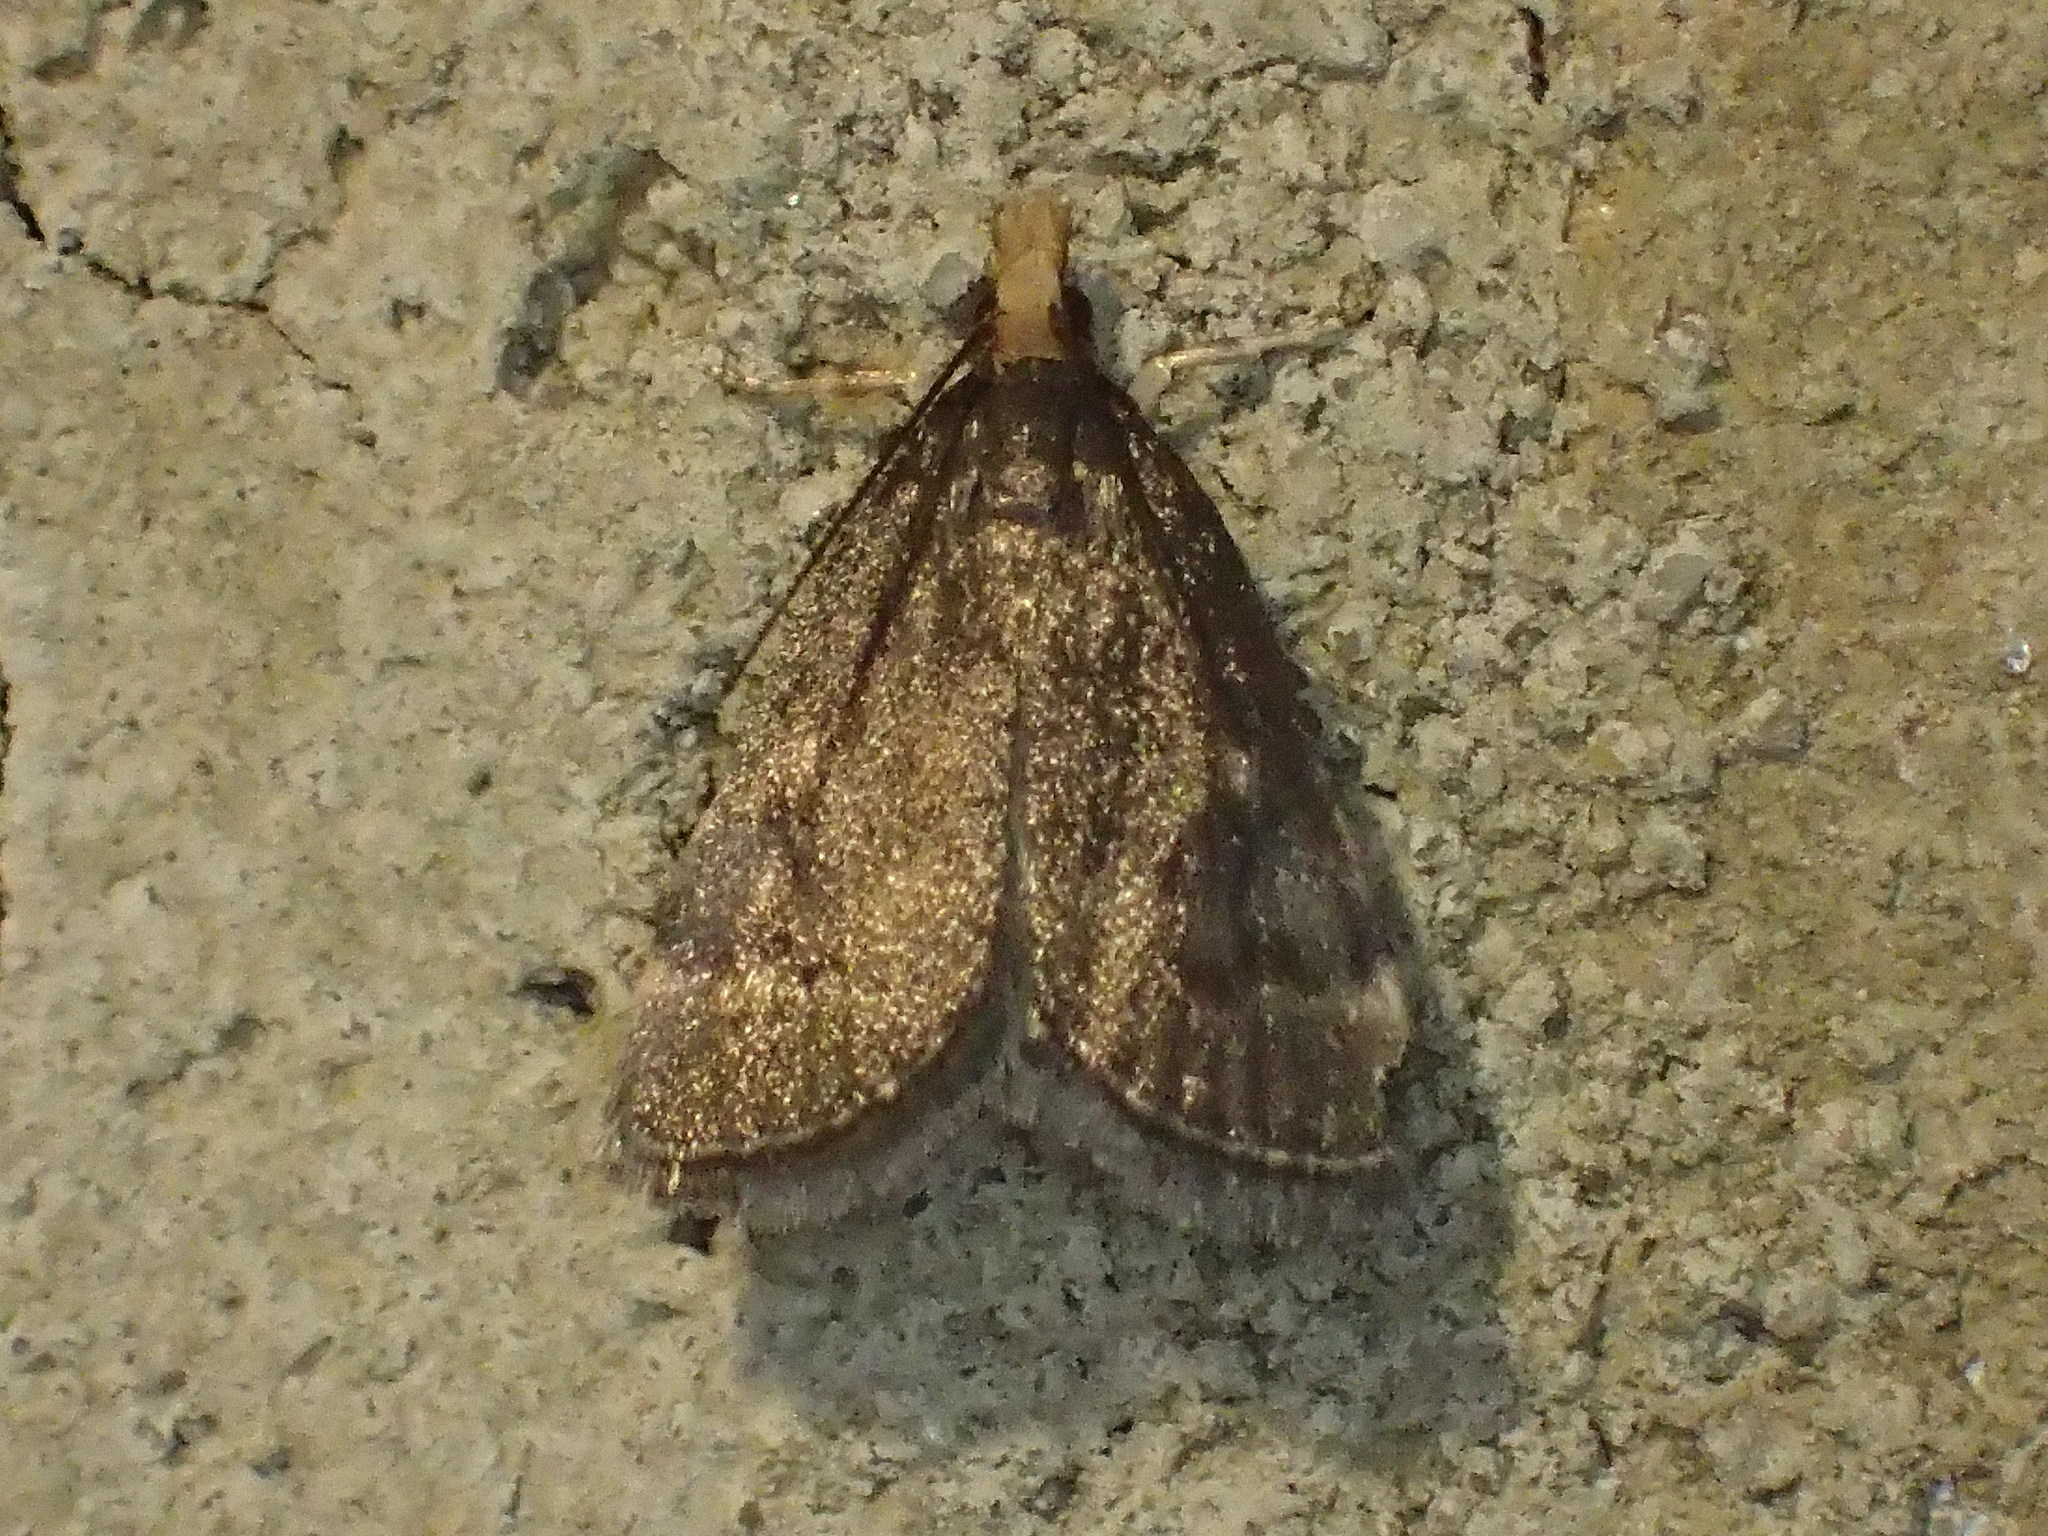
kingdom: Animalia
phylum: Arthropoda
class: Insecta
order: Lepidoptera
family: Crambidae
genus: Pyrausta
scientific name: Pyrausta merrickalis
